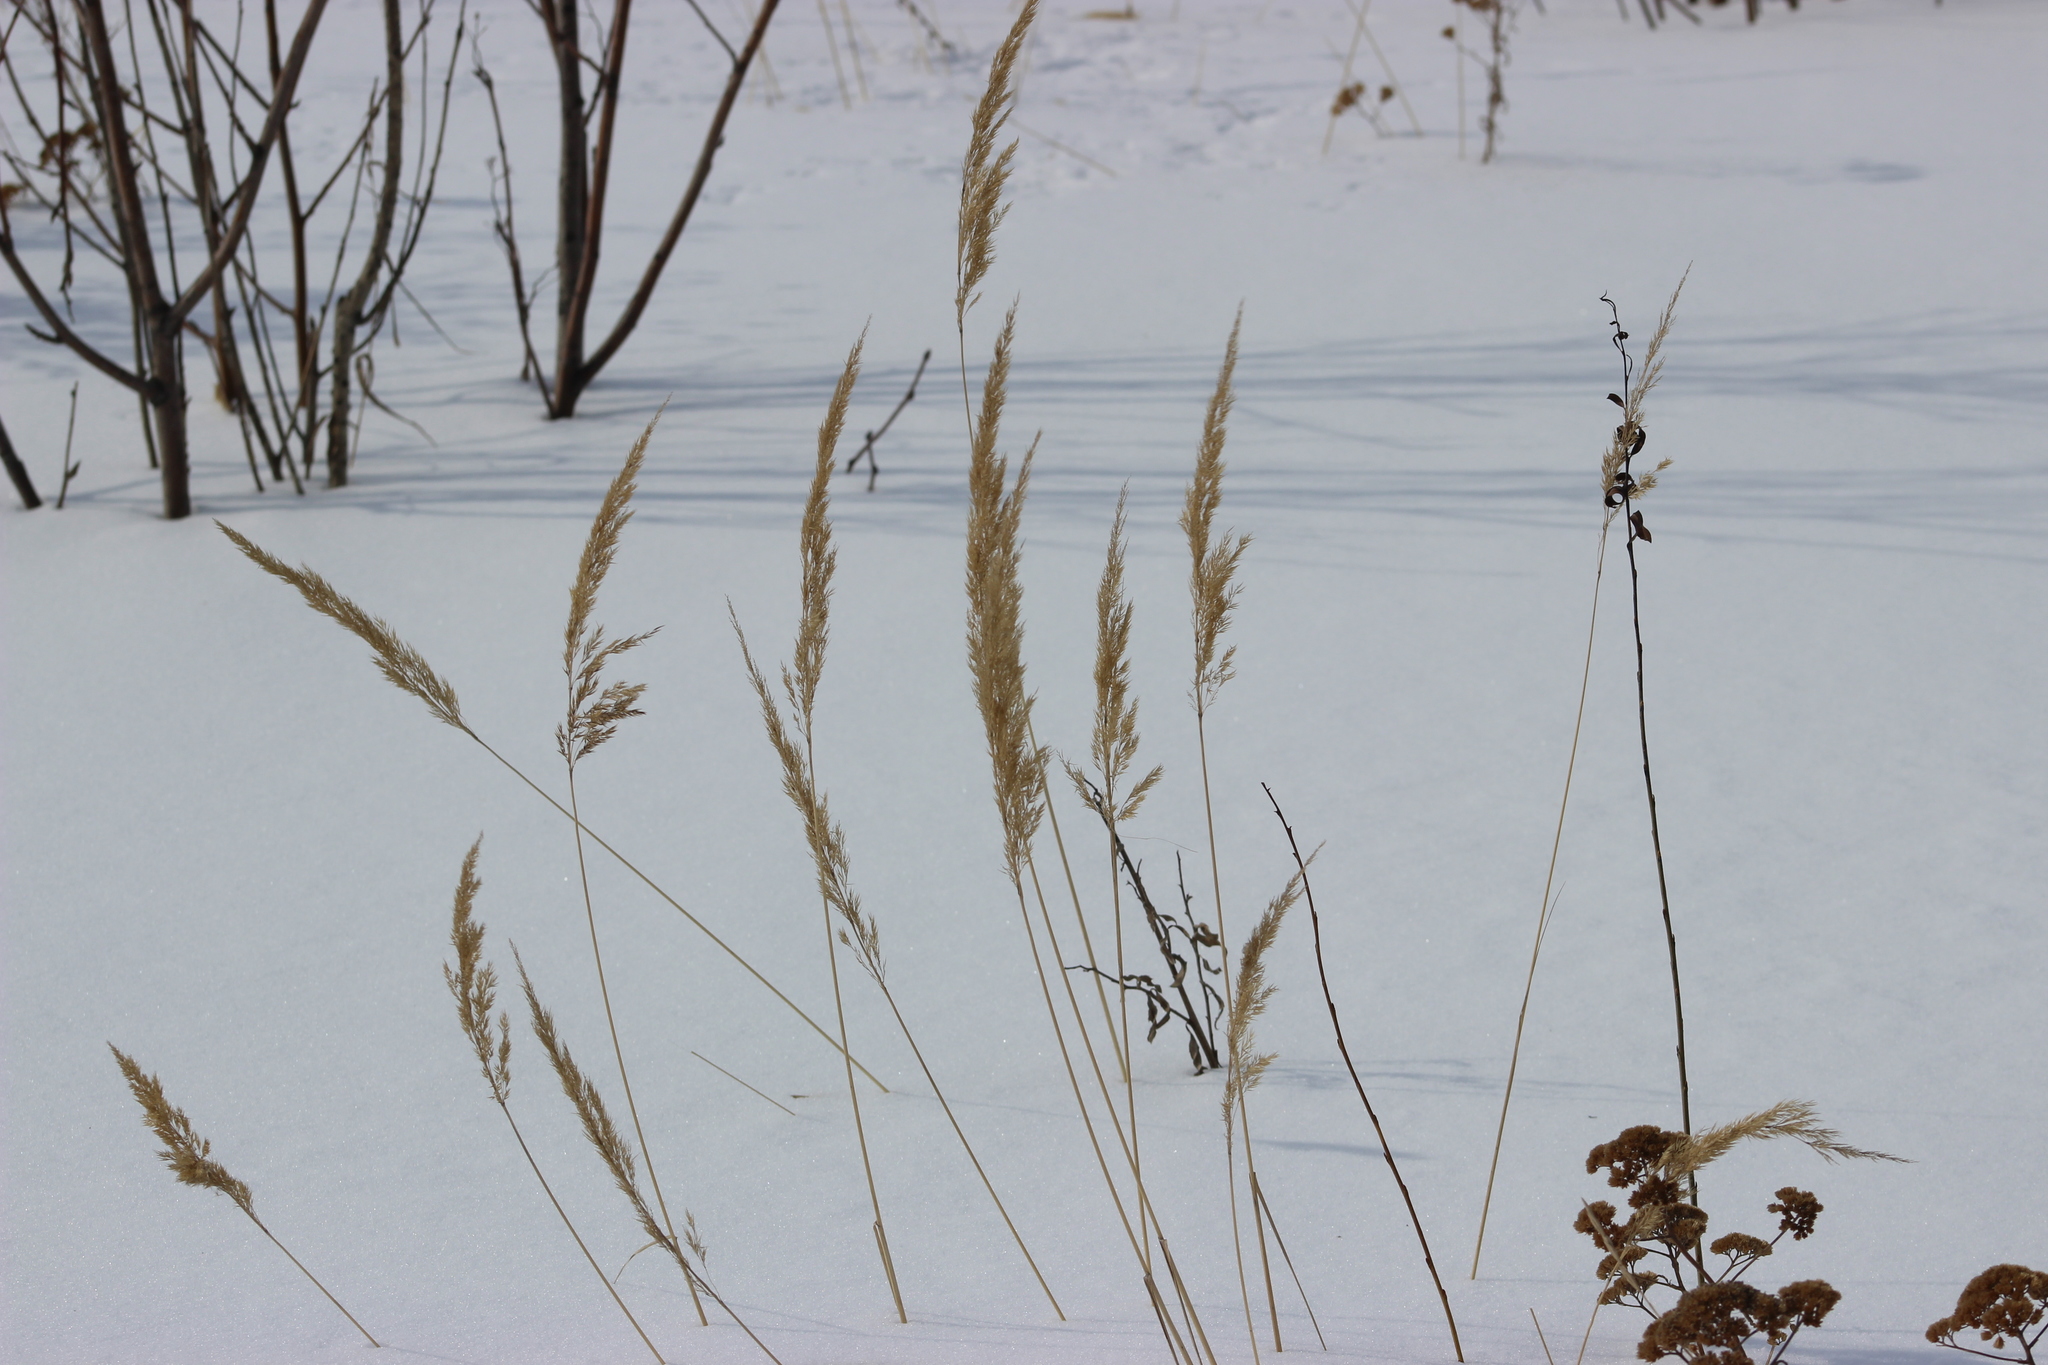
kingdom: Plantae
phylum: Tracheophyta
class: Liliopsida
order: Poales
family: Poaceae
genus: Calamagrostis
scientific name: Calamagrostis epigejos
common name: Wood small-reed
